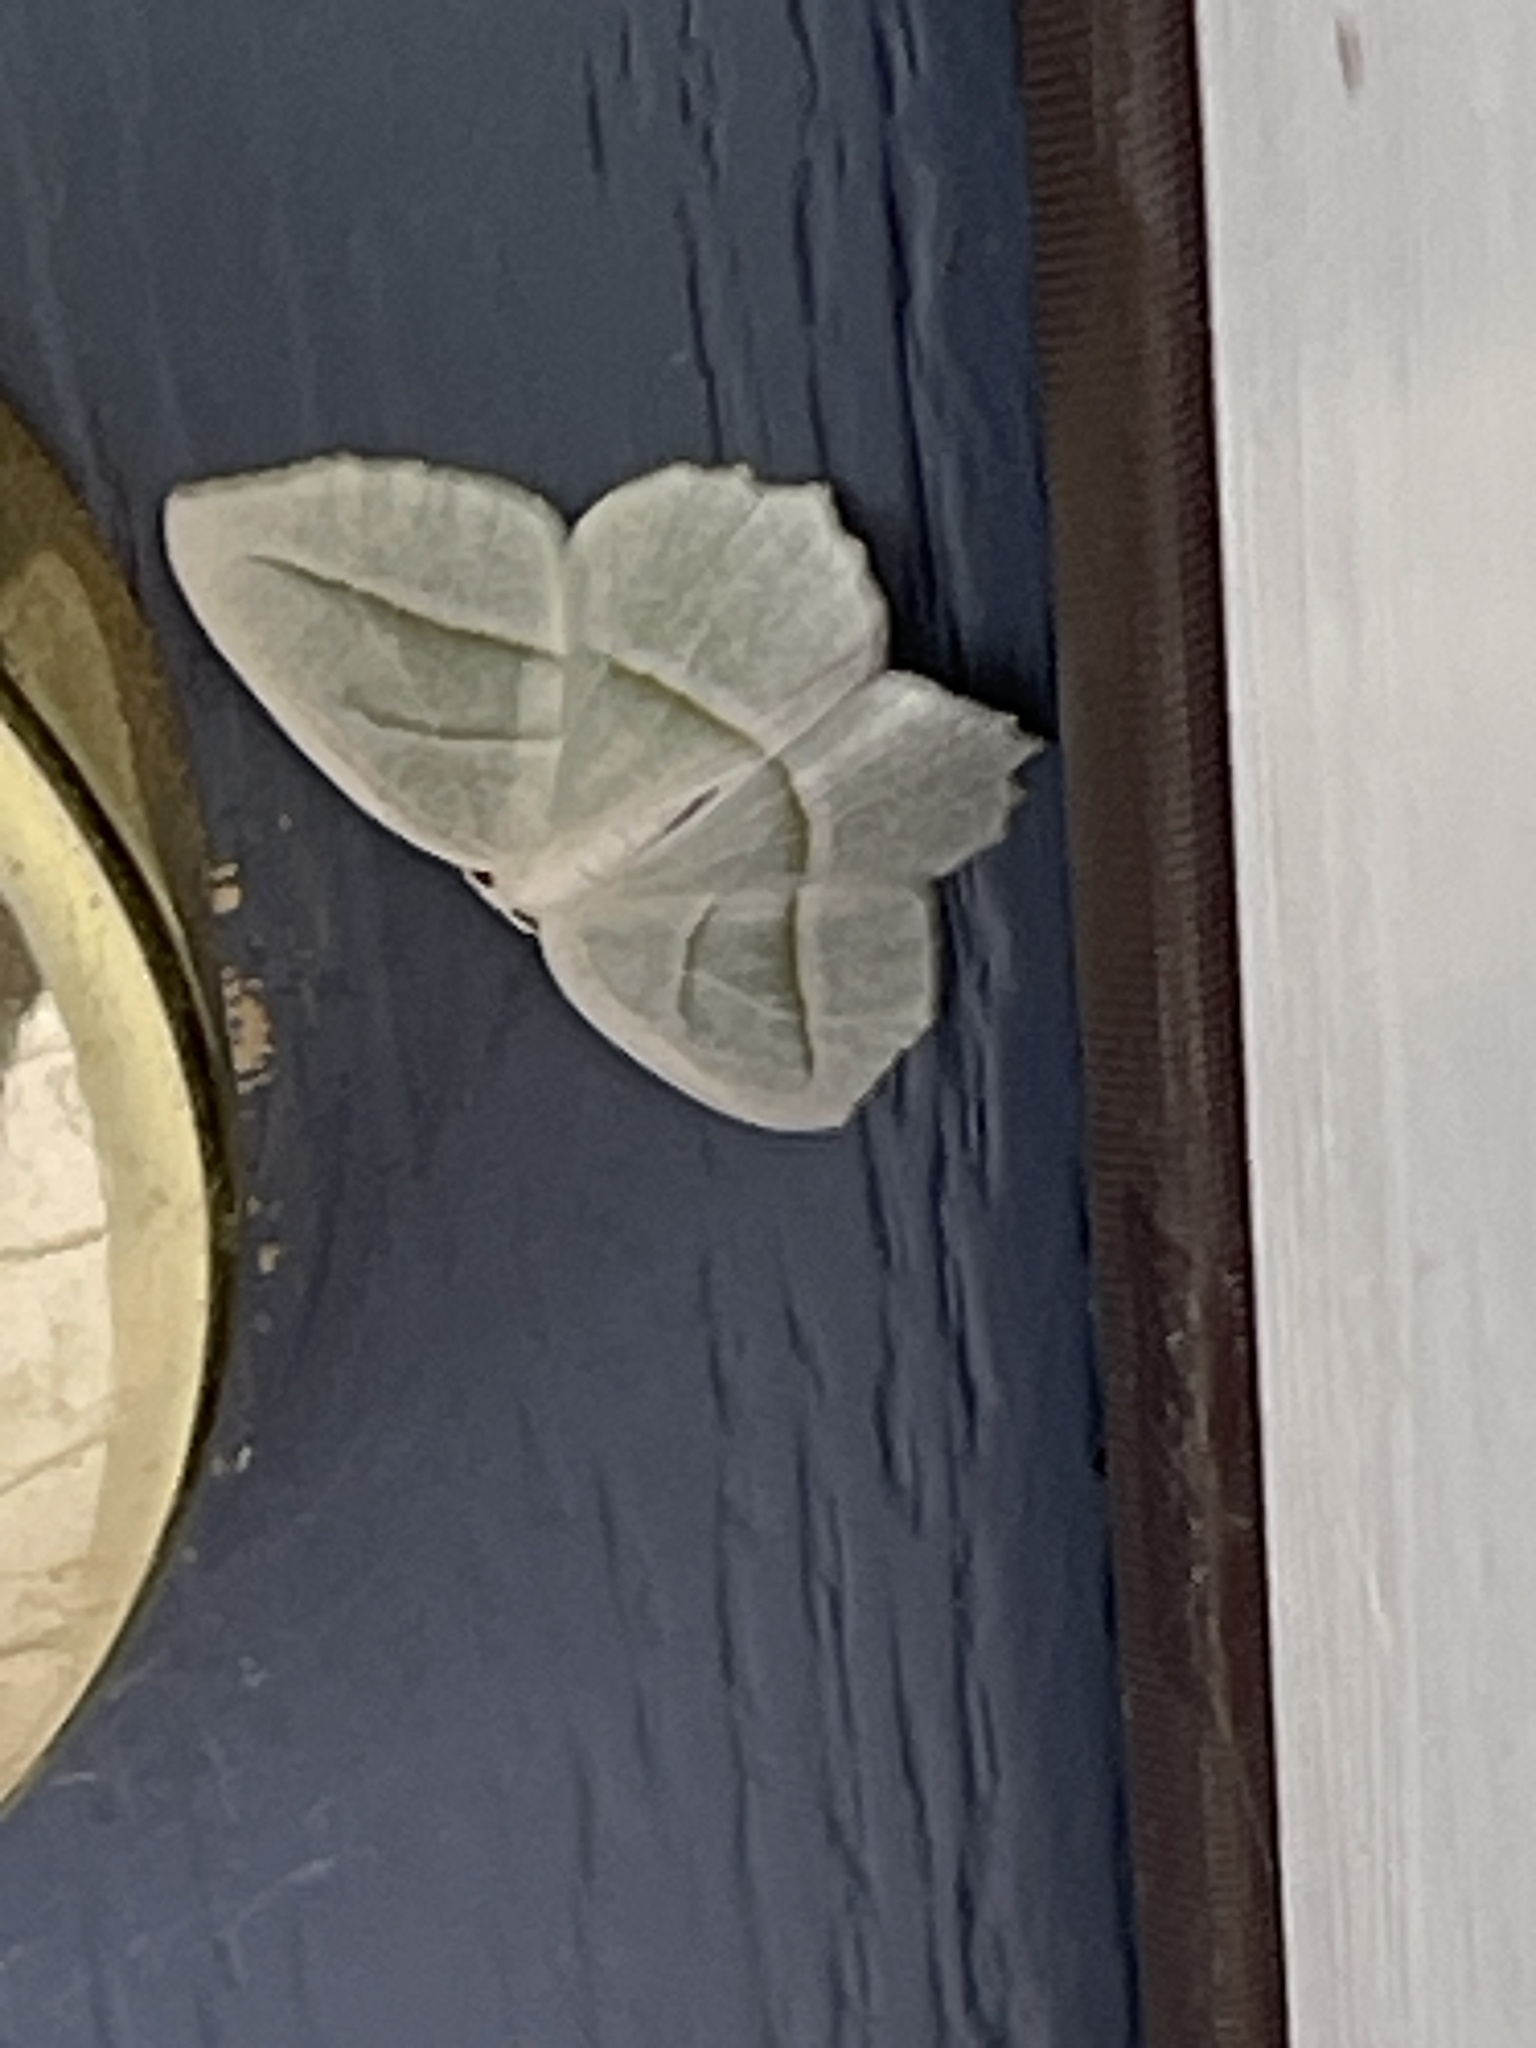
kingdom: Animalia
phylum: Arthropoda
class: Insecta
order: Lepidoptera
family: Geometridae
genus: Campaea
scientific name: Campaea perlata
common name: Fringed looper
